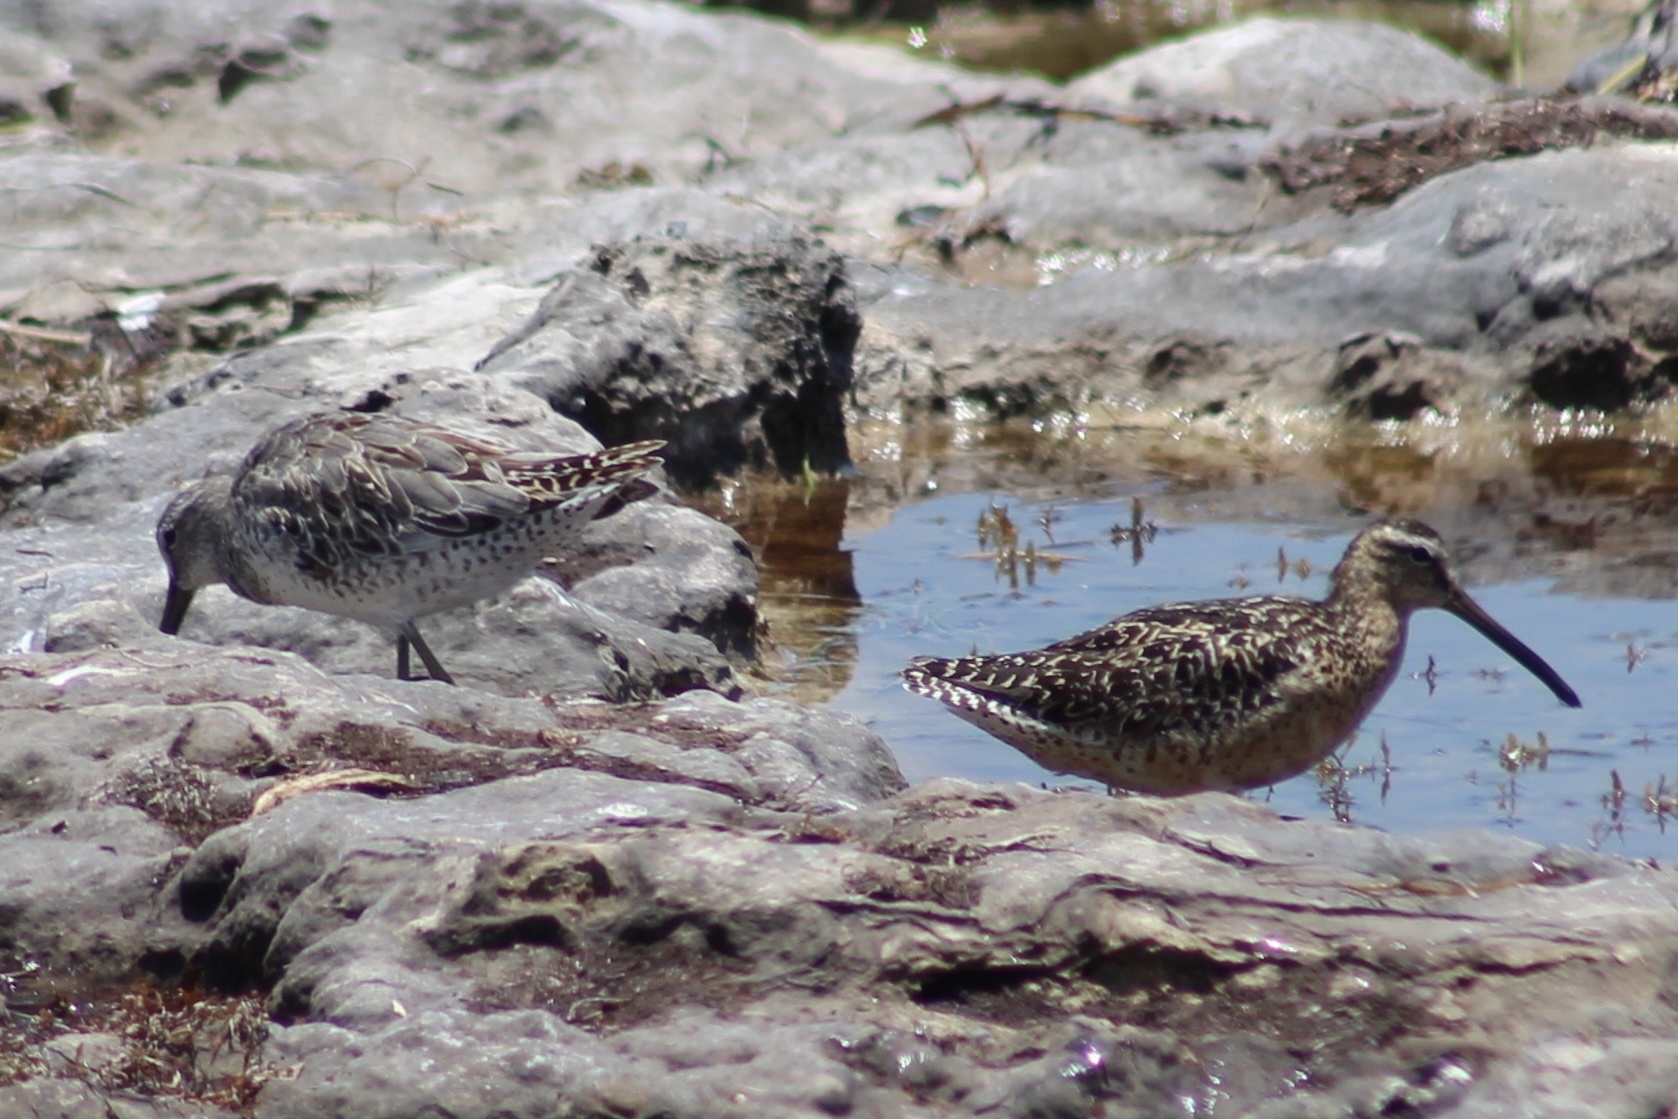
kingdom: Animalia
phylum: Chordata
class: Aves
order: Charadriiformes
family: Scolopacidae
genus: Limnodromus
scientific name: Limnodromus griseus
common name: Short-billed dowitcher
